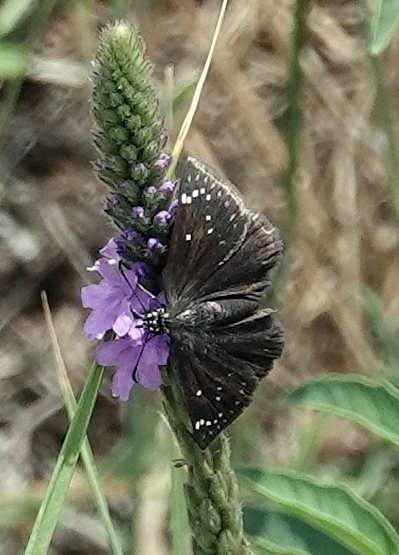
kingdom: Animalia
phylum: Arthropoda
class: Insecta
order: Lepidoptera
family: Hesperiidae
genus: Pholisora
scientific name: Pholisora catullus
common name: Common sootywing
